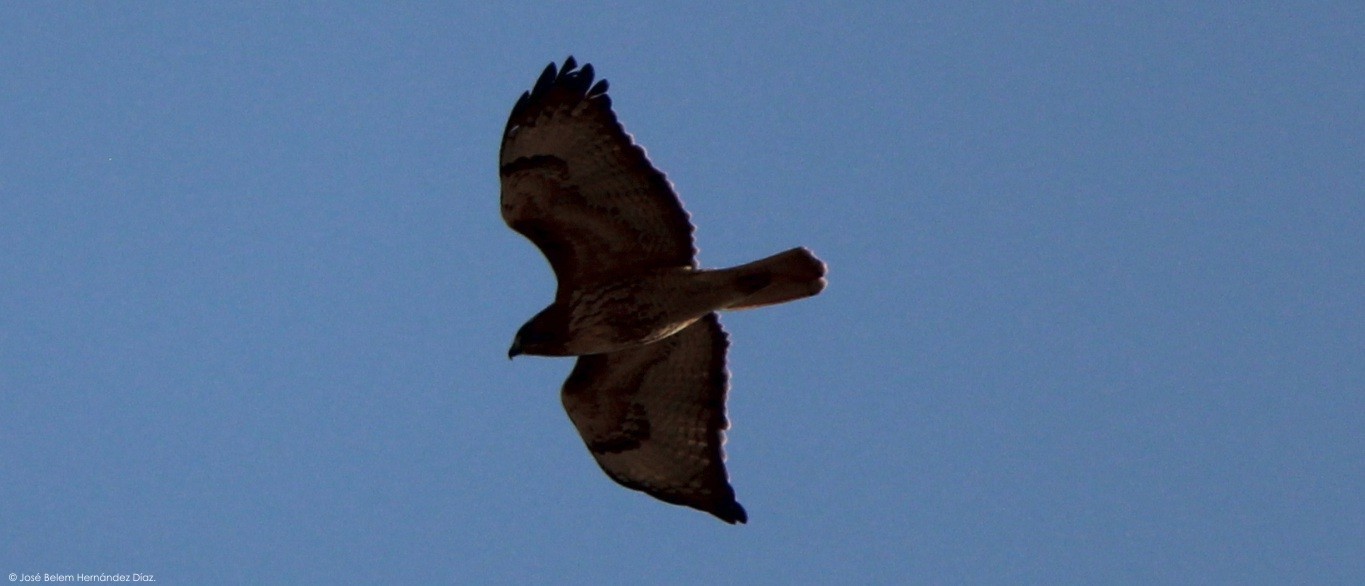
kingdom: Animalia
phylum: Chordata
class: Aves
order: Accipitriformes
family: Accipitridae
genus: Buteo
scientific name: Buteo jamaicensis
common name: Red-tailed hawk
